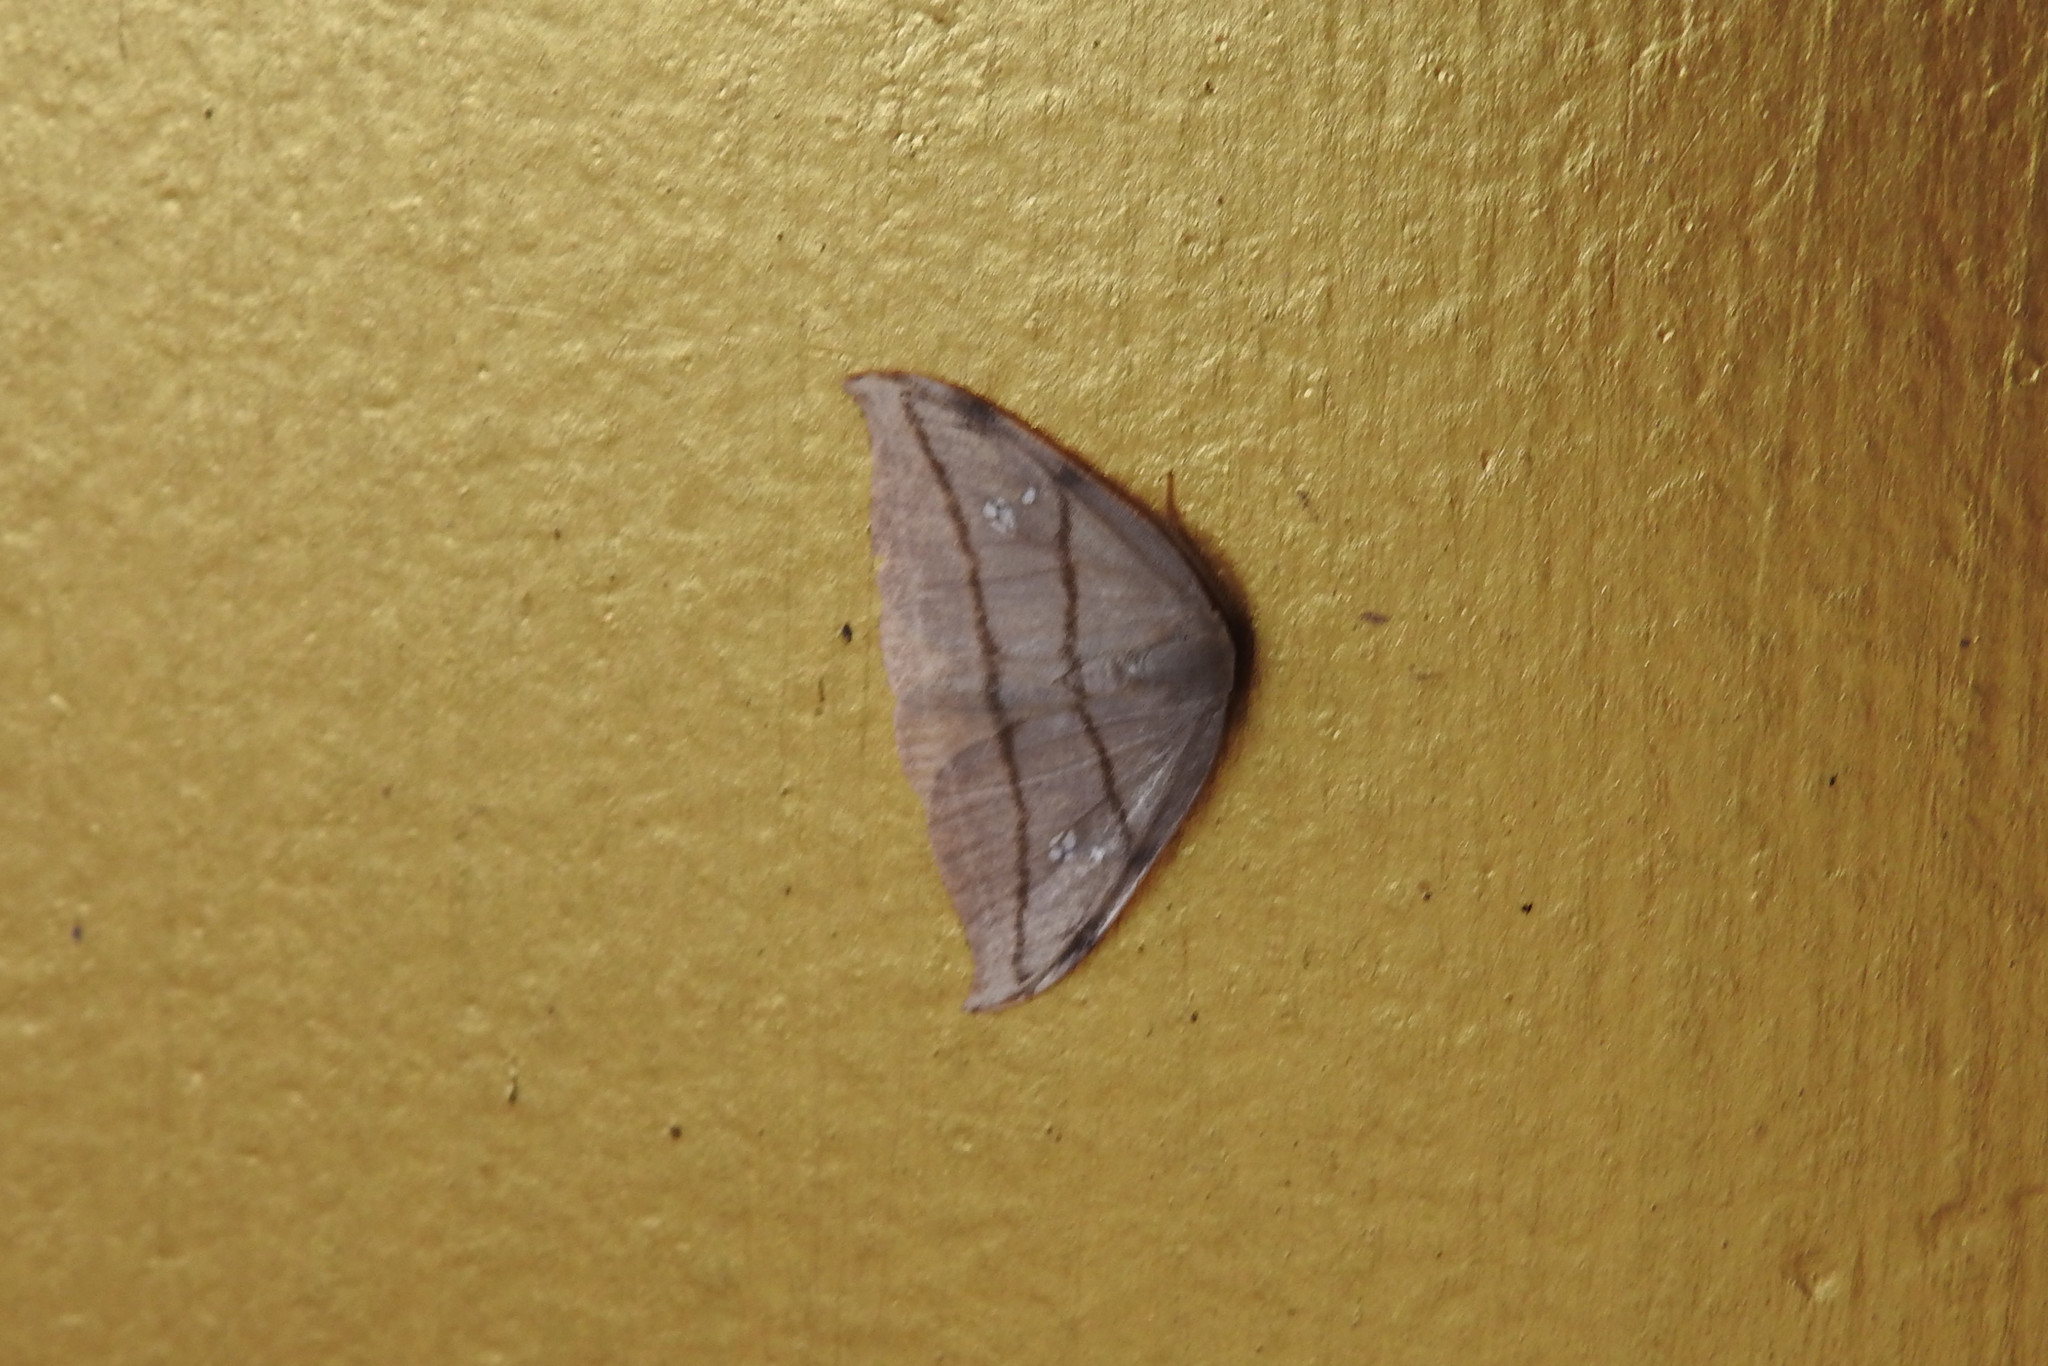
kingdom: Animalia
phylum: Arthropoda
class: Insecta
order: Lepidoptera
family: Drepanidae
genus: Nordstromia
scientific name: Nordstromia vira
